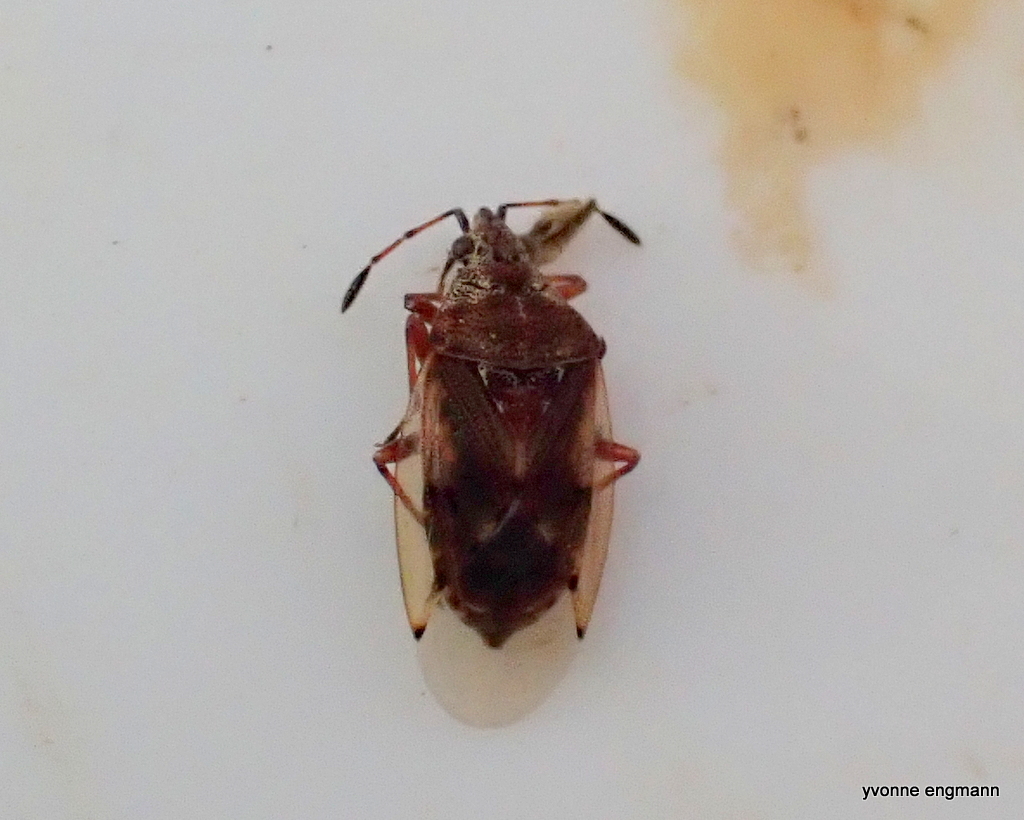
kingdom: Animalia
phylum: Arthropoda
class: Insecta
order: Hemiptera
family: Lygaeidae
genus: Kleidocerys
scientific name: Kleidocerys resedae
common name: Birch catkin bug
